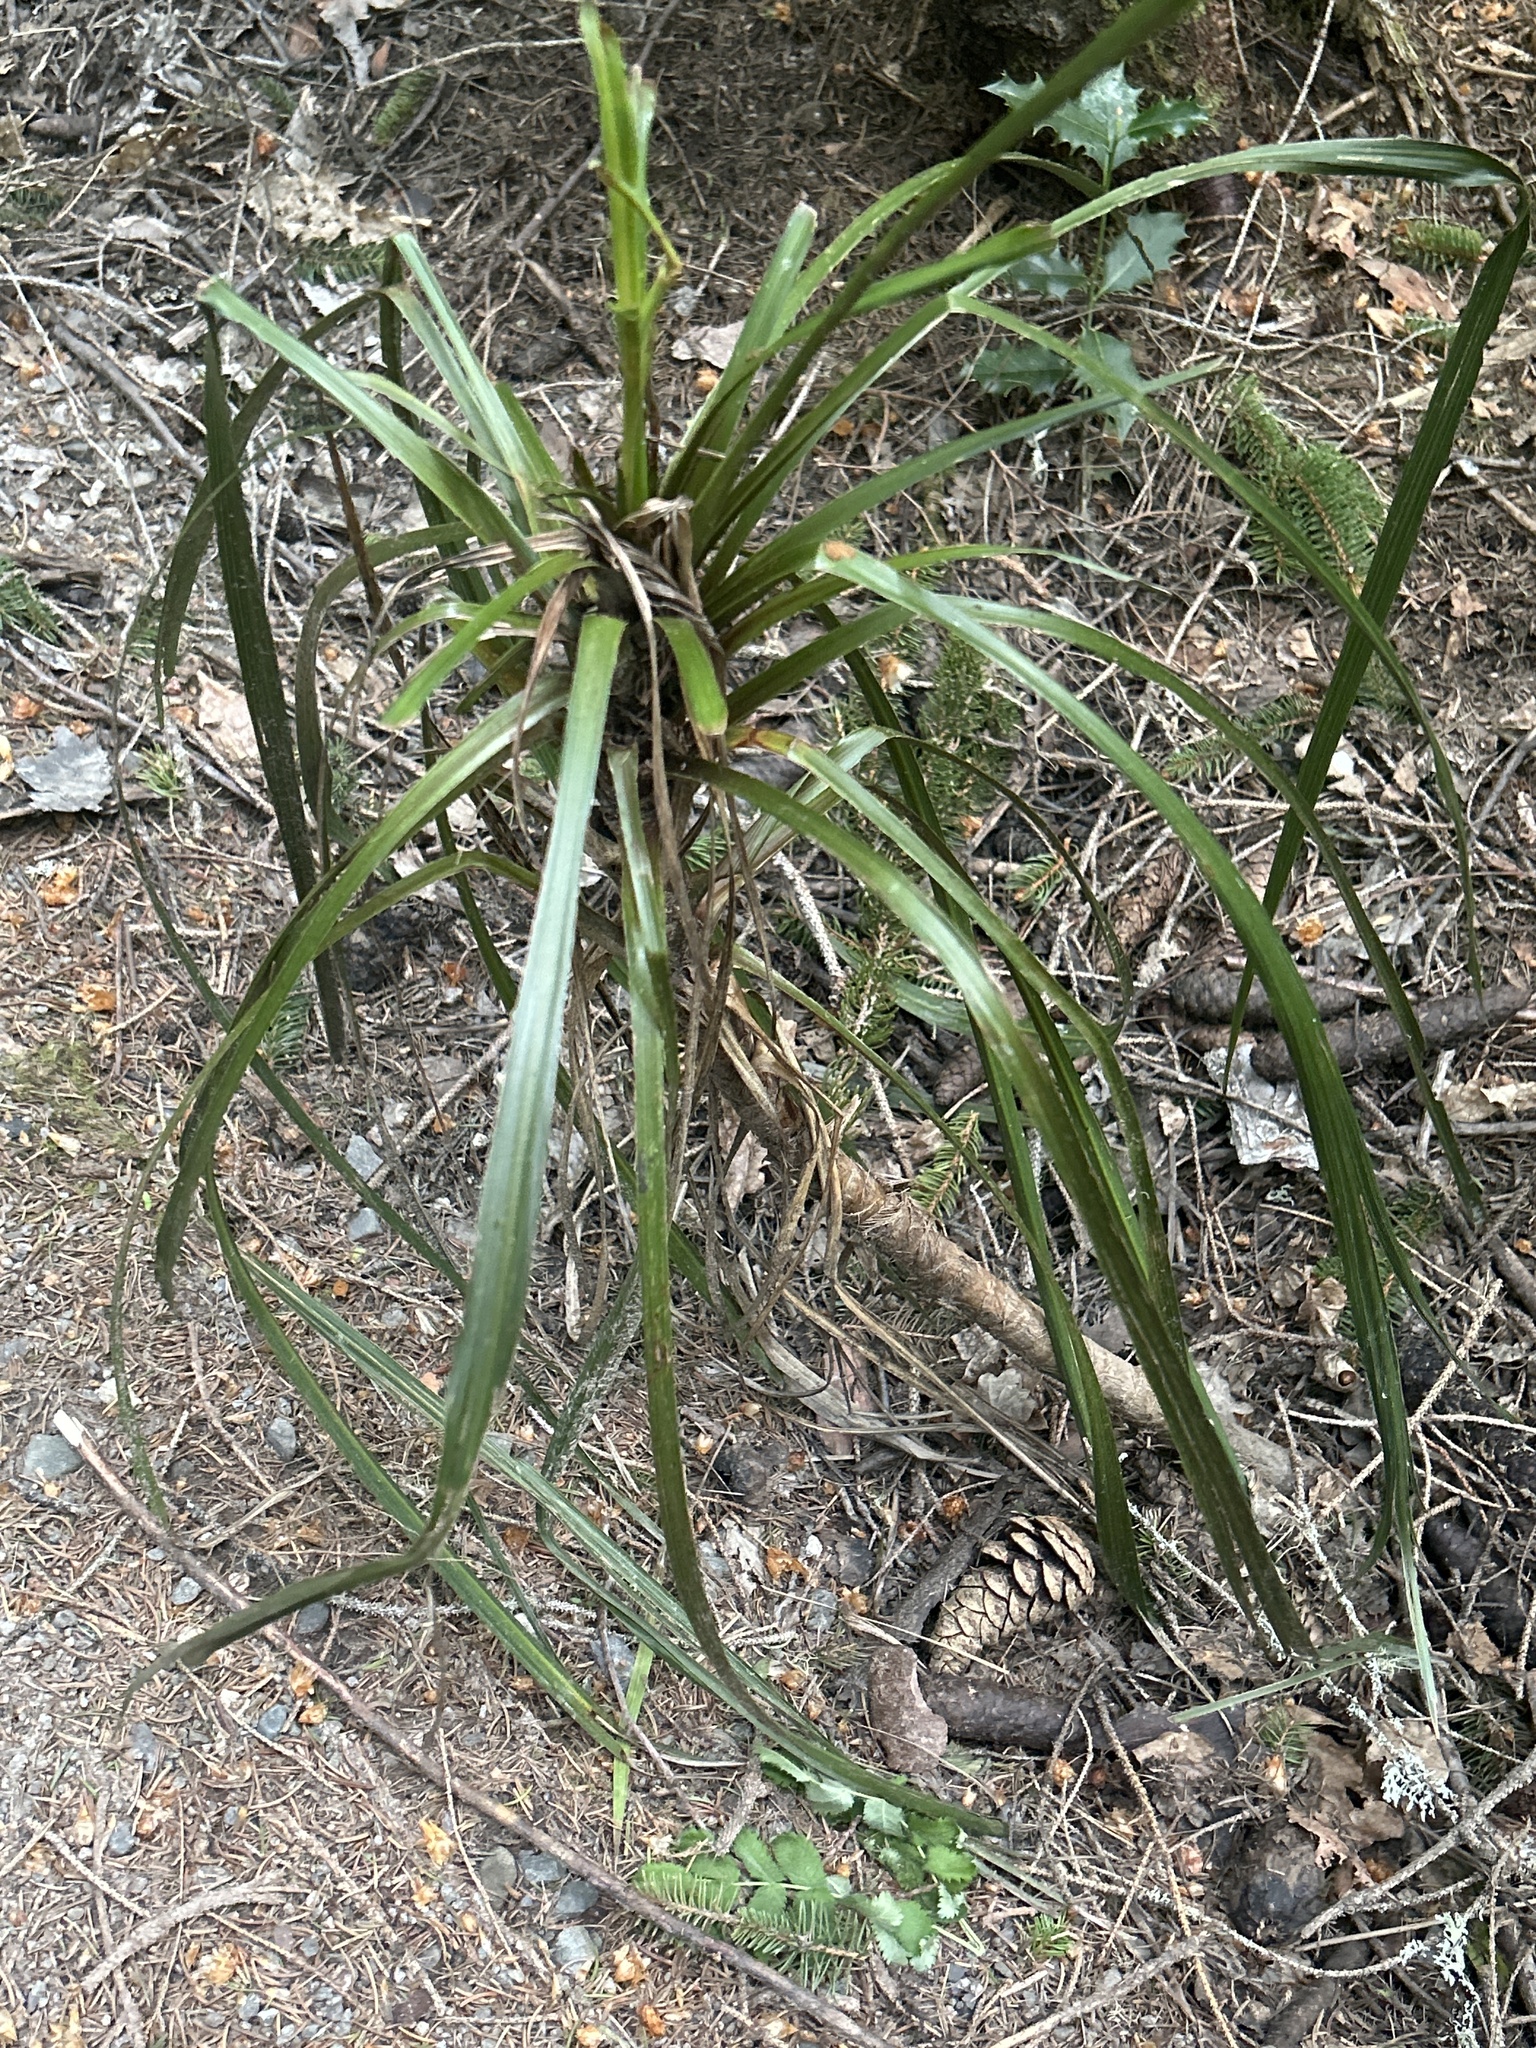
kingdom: Plantae
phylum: Tracheophyta
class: Liliopsida
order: Pandanales
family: Pandanaceae
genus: Freycinetia
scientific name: Freycinetia banksii
